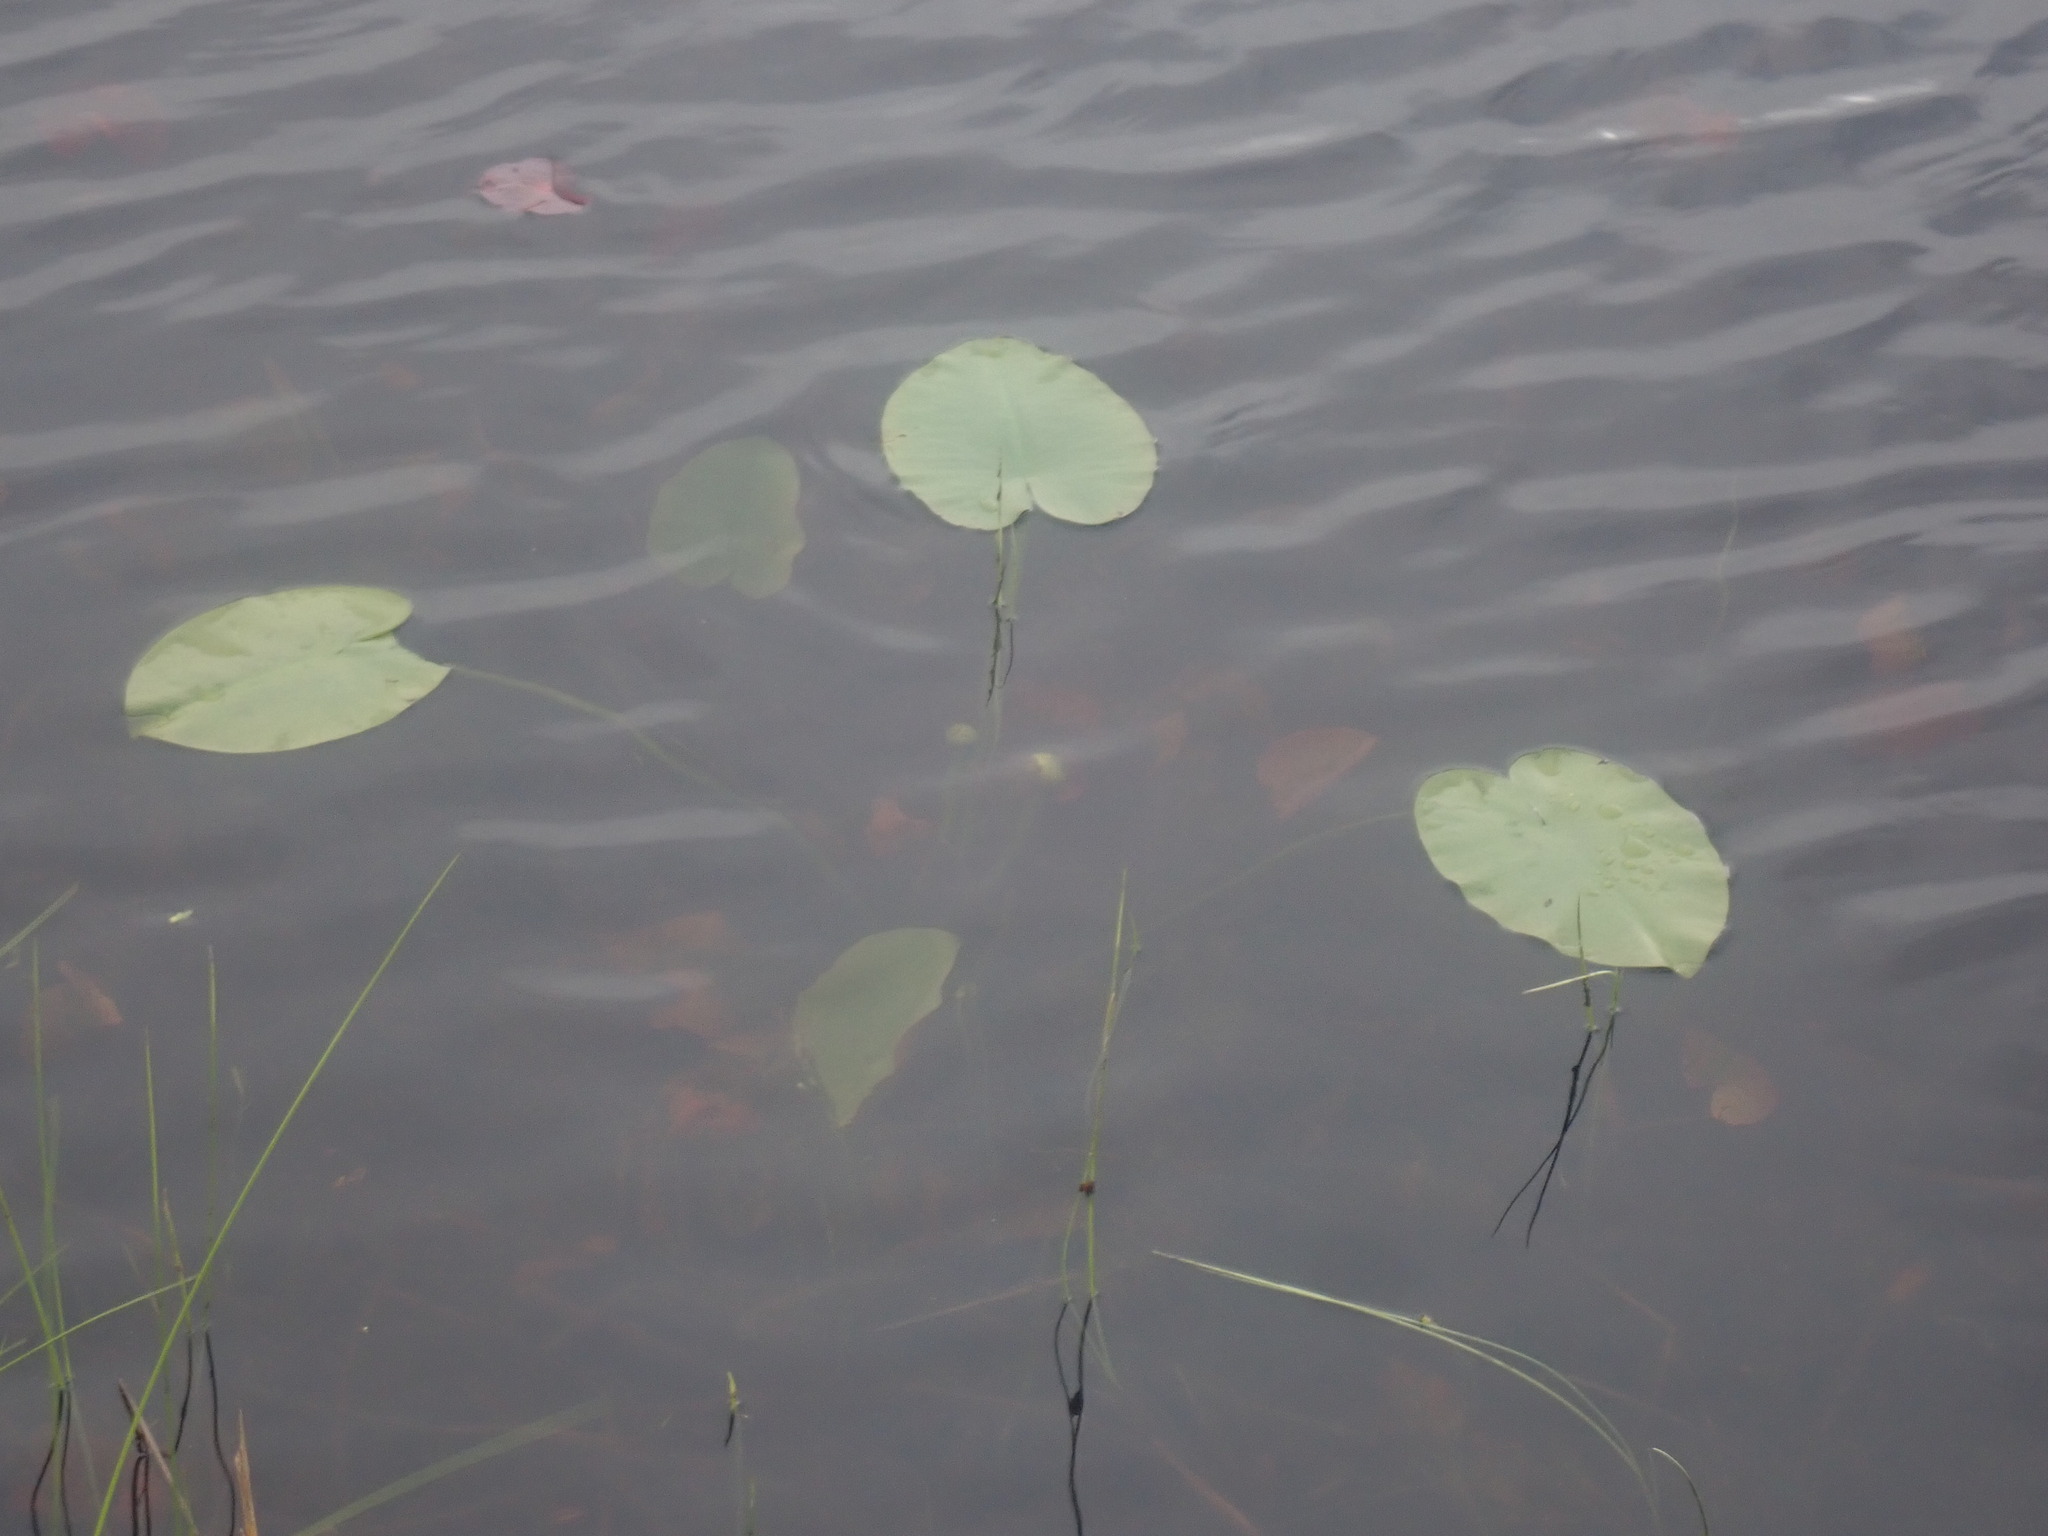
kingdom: Plantae
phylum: Tracheophyta
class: Magnoliopsida
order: Nymphaeales
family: Nymphaeaceae
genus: Nuphar
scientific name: Nuphar variegata
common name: Beaver-root
